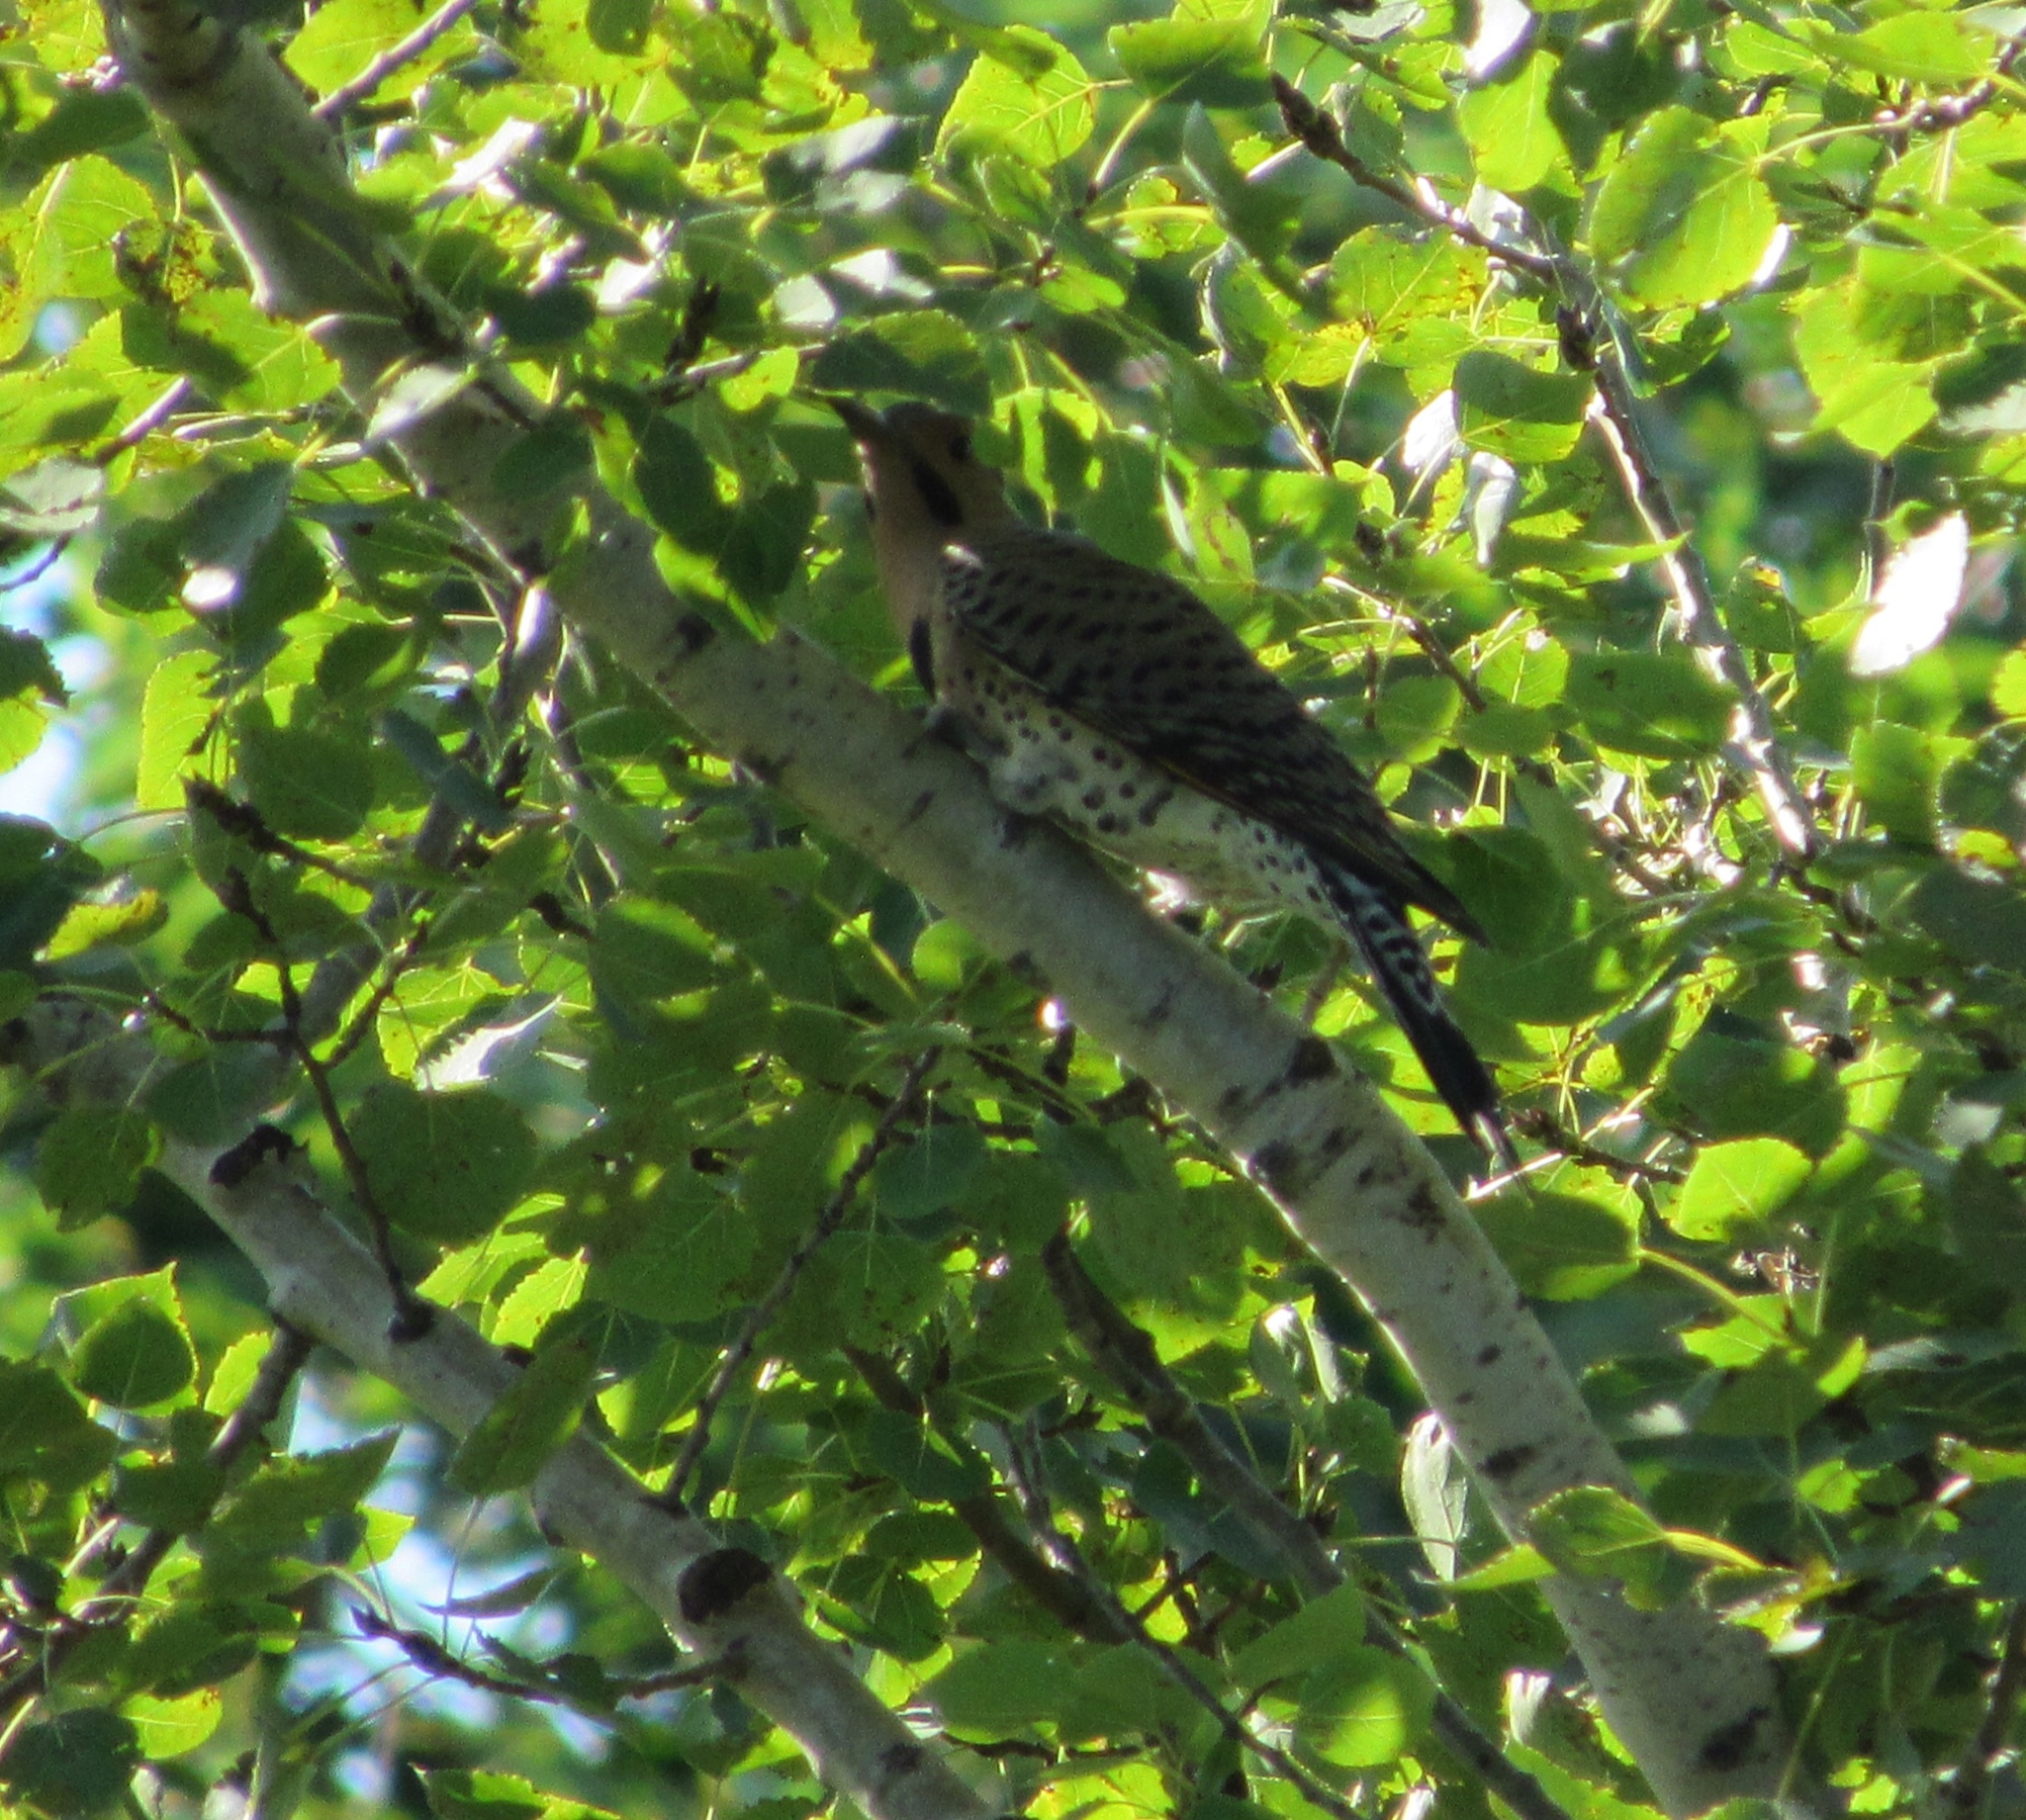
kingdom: Animalia
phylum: Chordata
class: Aves
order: Piciformes
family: Picidae
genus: Colaptes
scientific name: Colaptes auratus
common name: Northern flicker
